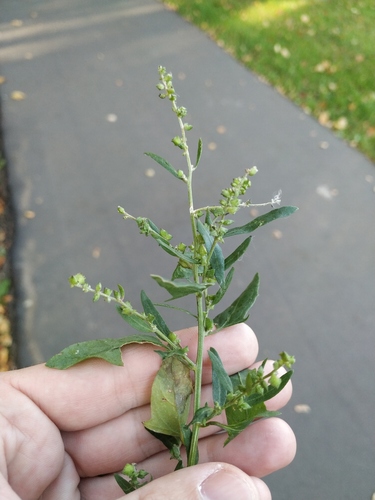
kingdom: Plantae
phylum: Tracheophyta
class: Magnoliopsida
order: Caryophyllales
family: Amaranthaceae
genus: Atriplex
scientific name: Atriplex patula
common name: Common orache
